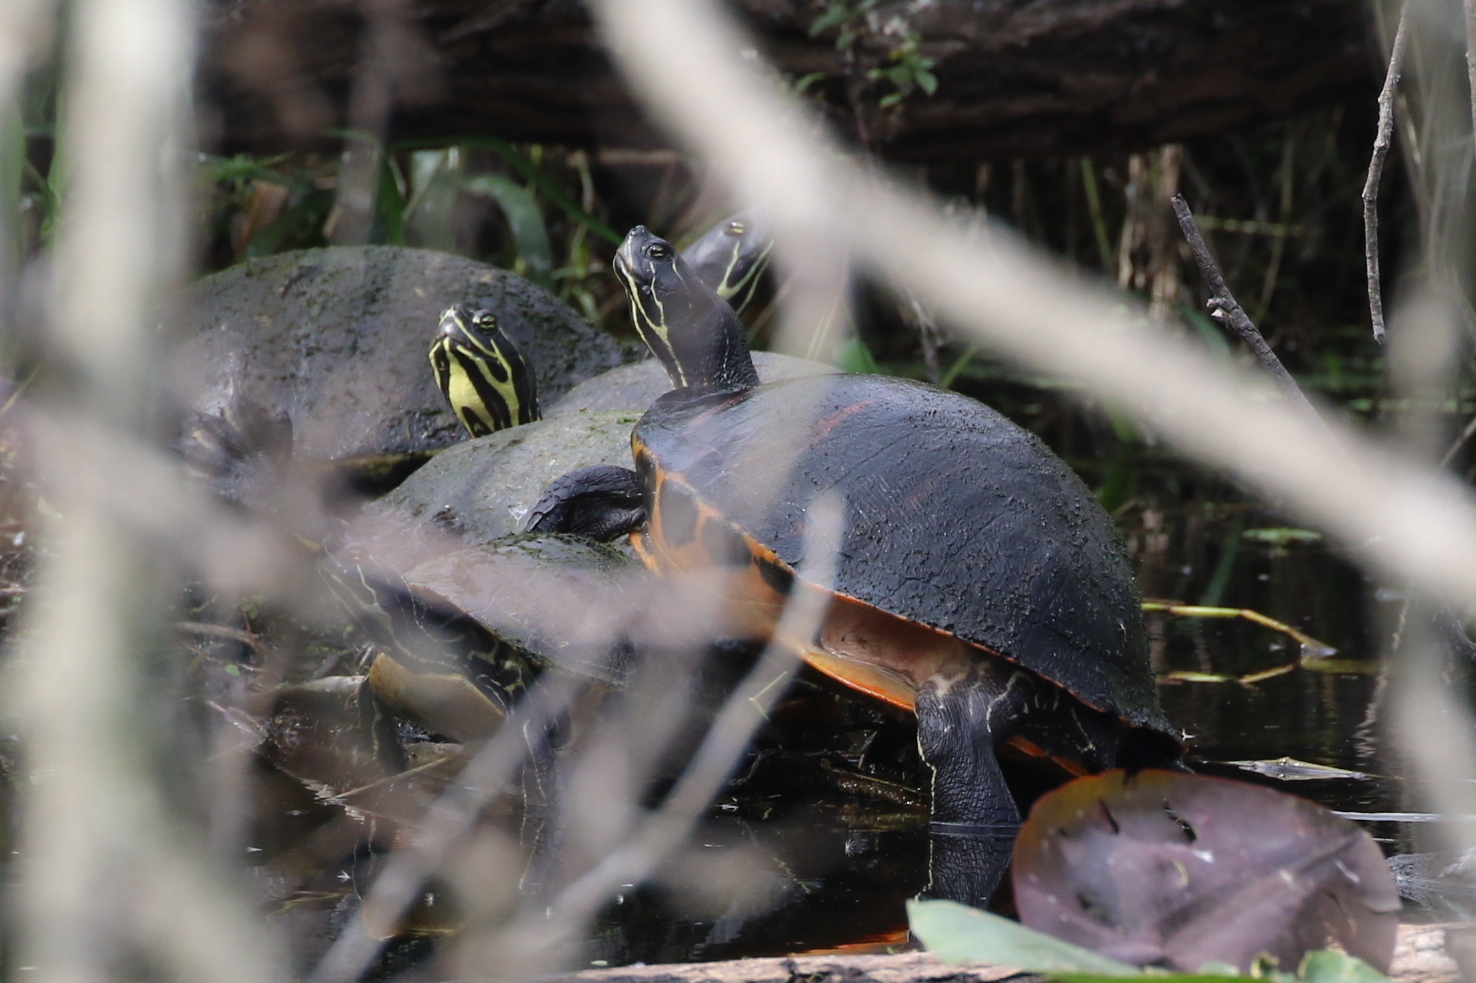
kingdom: Animalia
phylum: Chordata
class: Testudines
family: Emydidae
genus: Pseudemys
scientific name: Pseudemys nelsoni
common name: Florida red-bellied turtle
